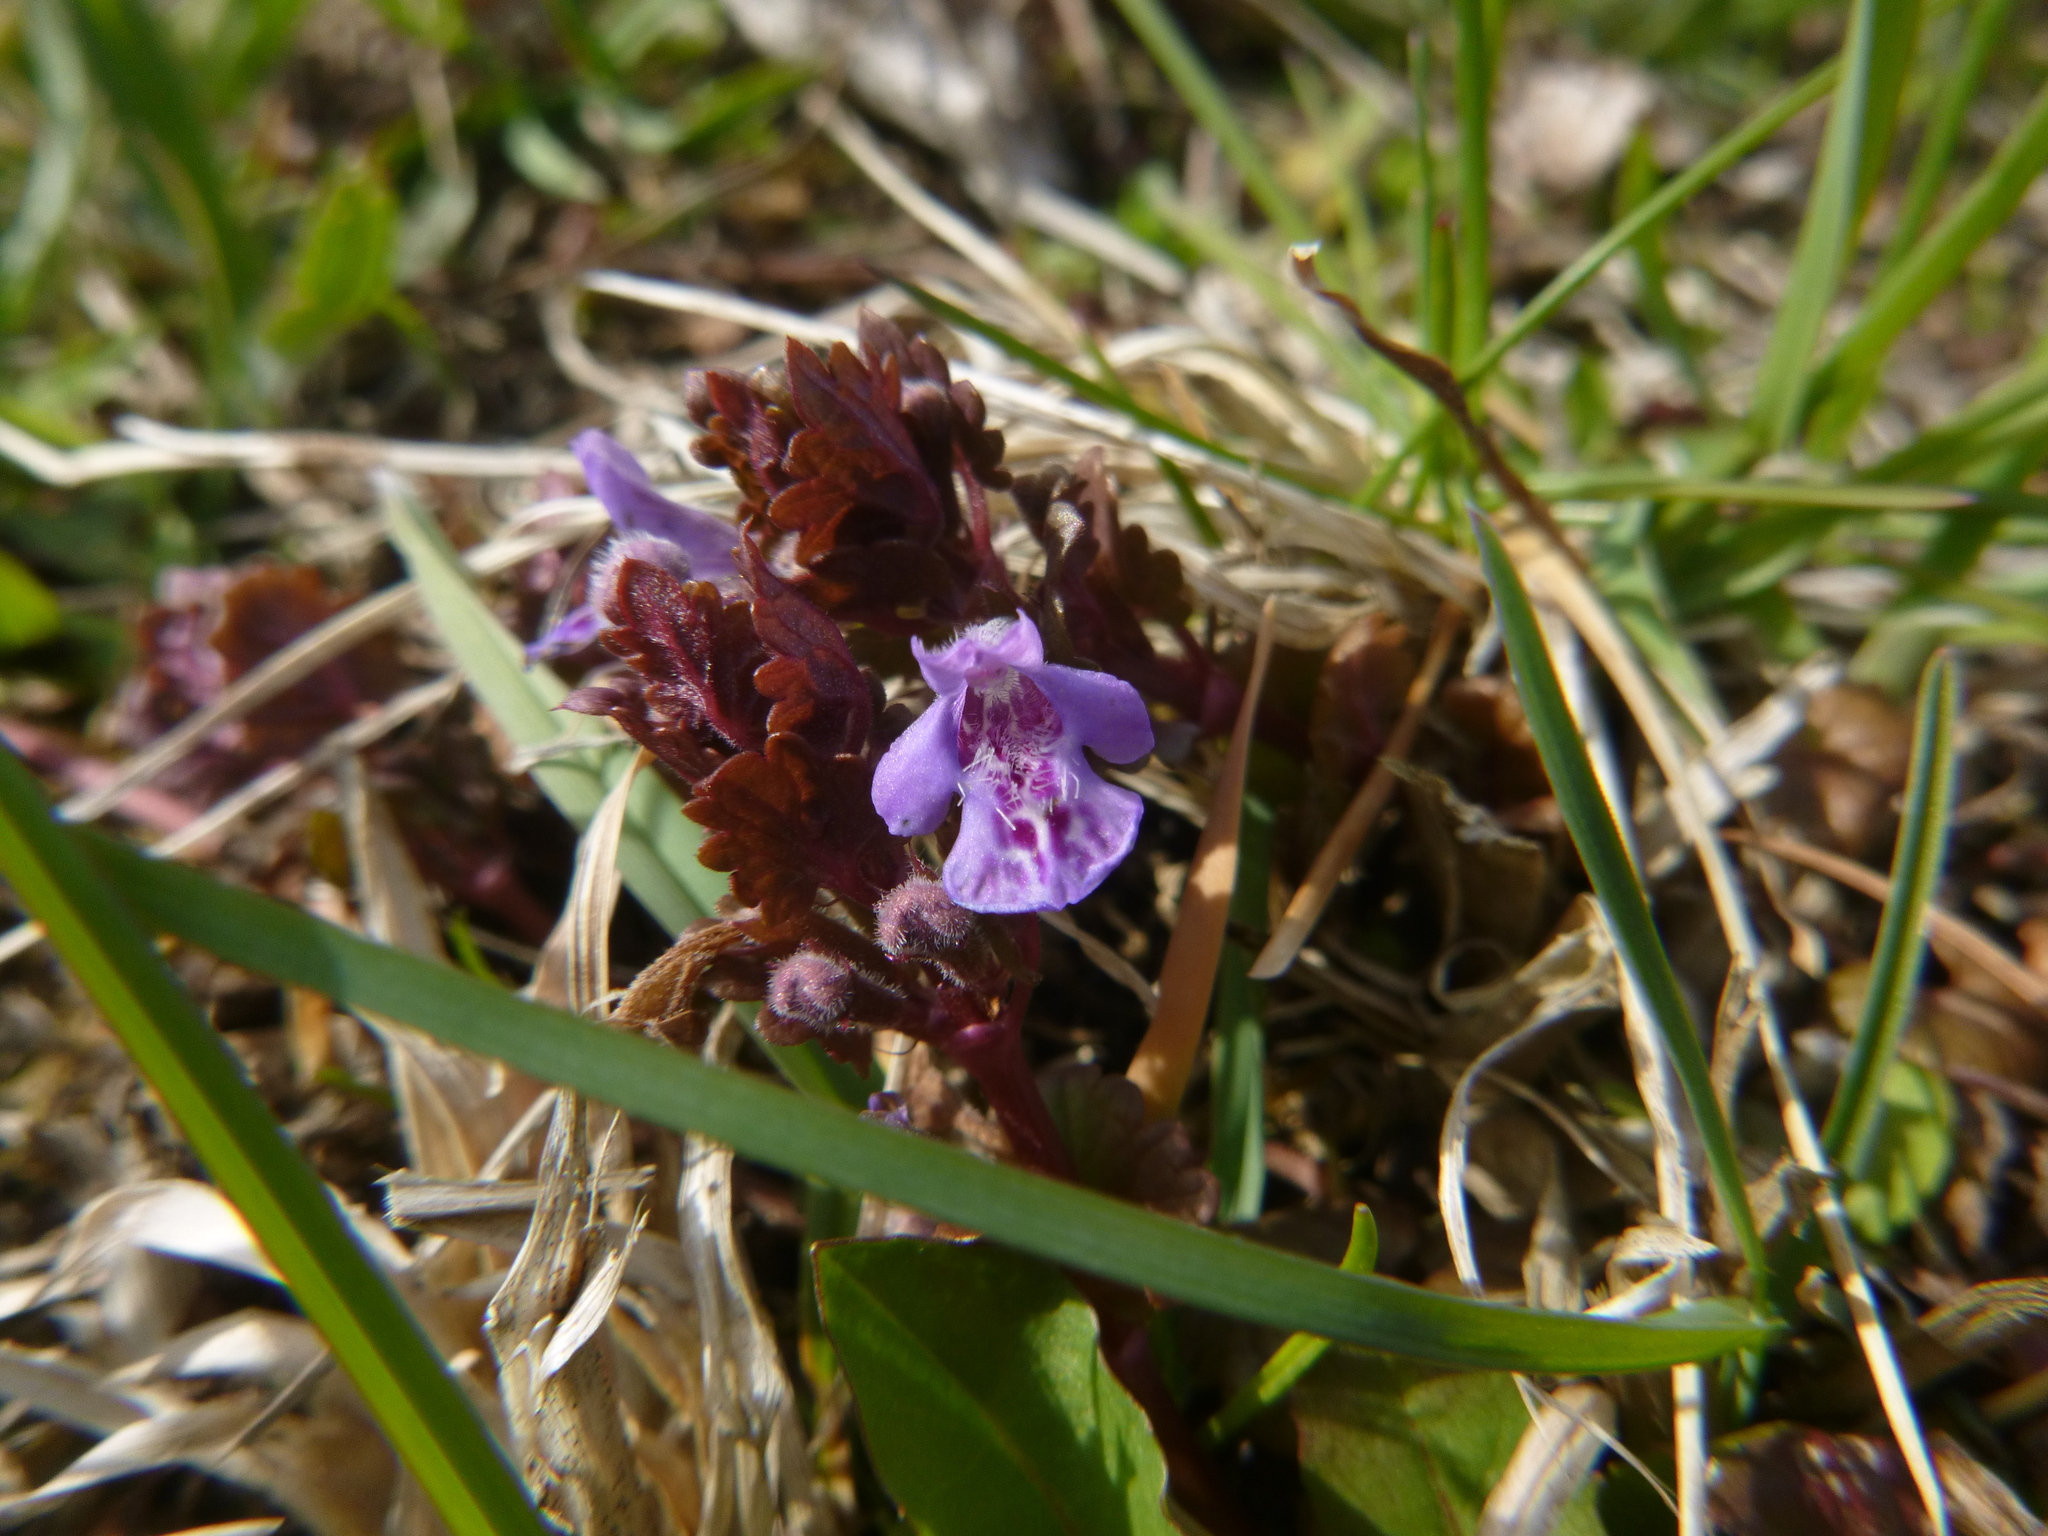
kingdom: Plantae
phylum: Tracheophyta
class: Magnoliopsida
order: Lamiales
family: Lamiaceae
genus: Glechoma
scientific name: Glechoma hederacea
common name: Ground ivy
